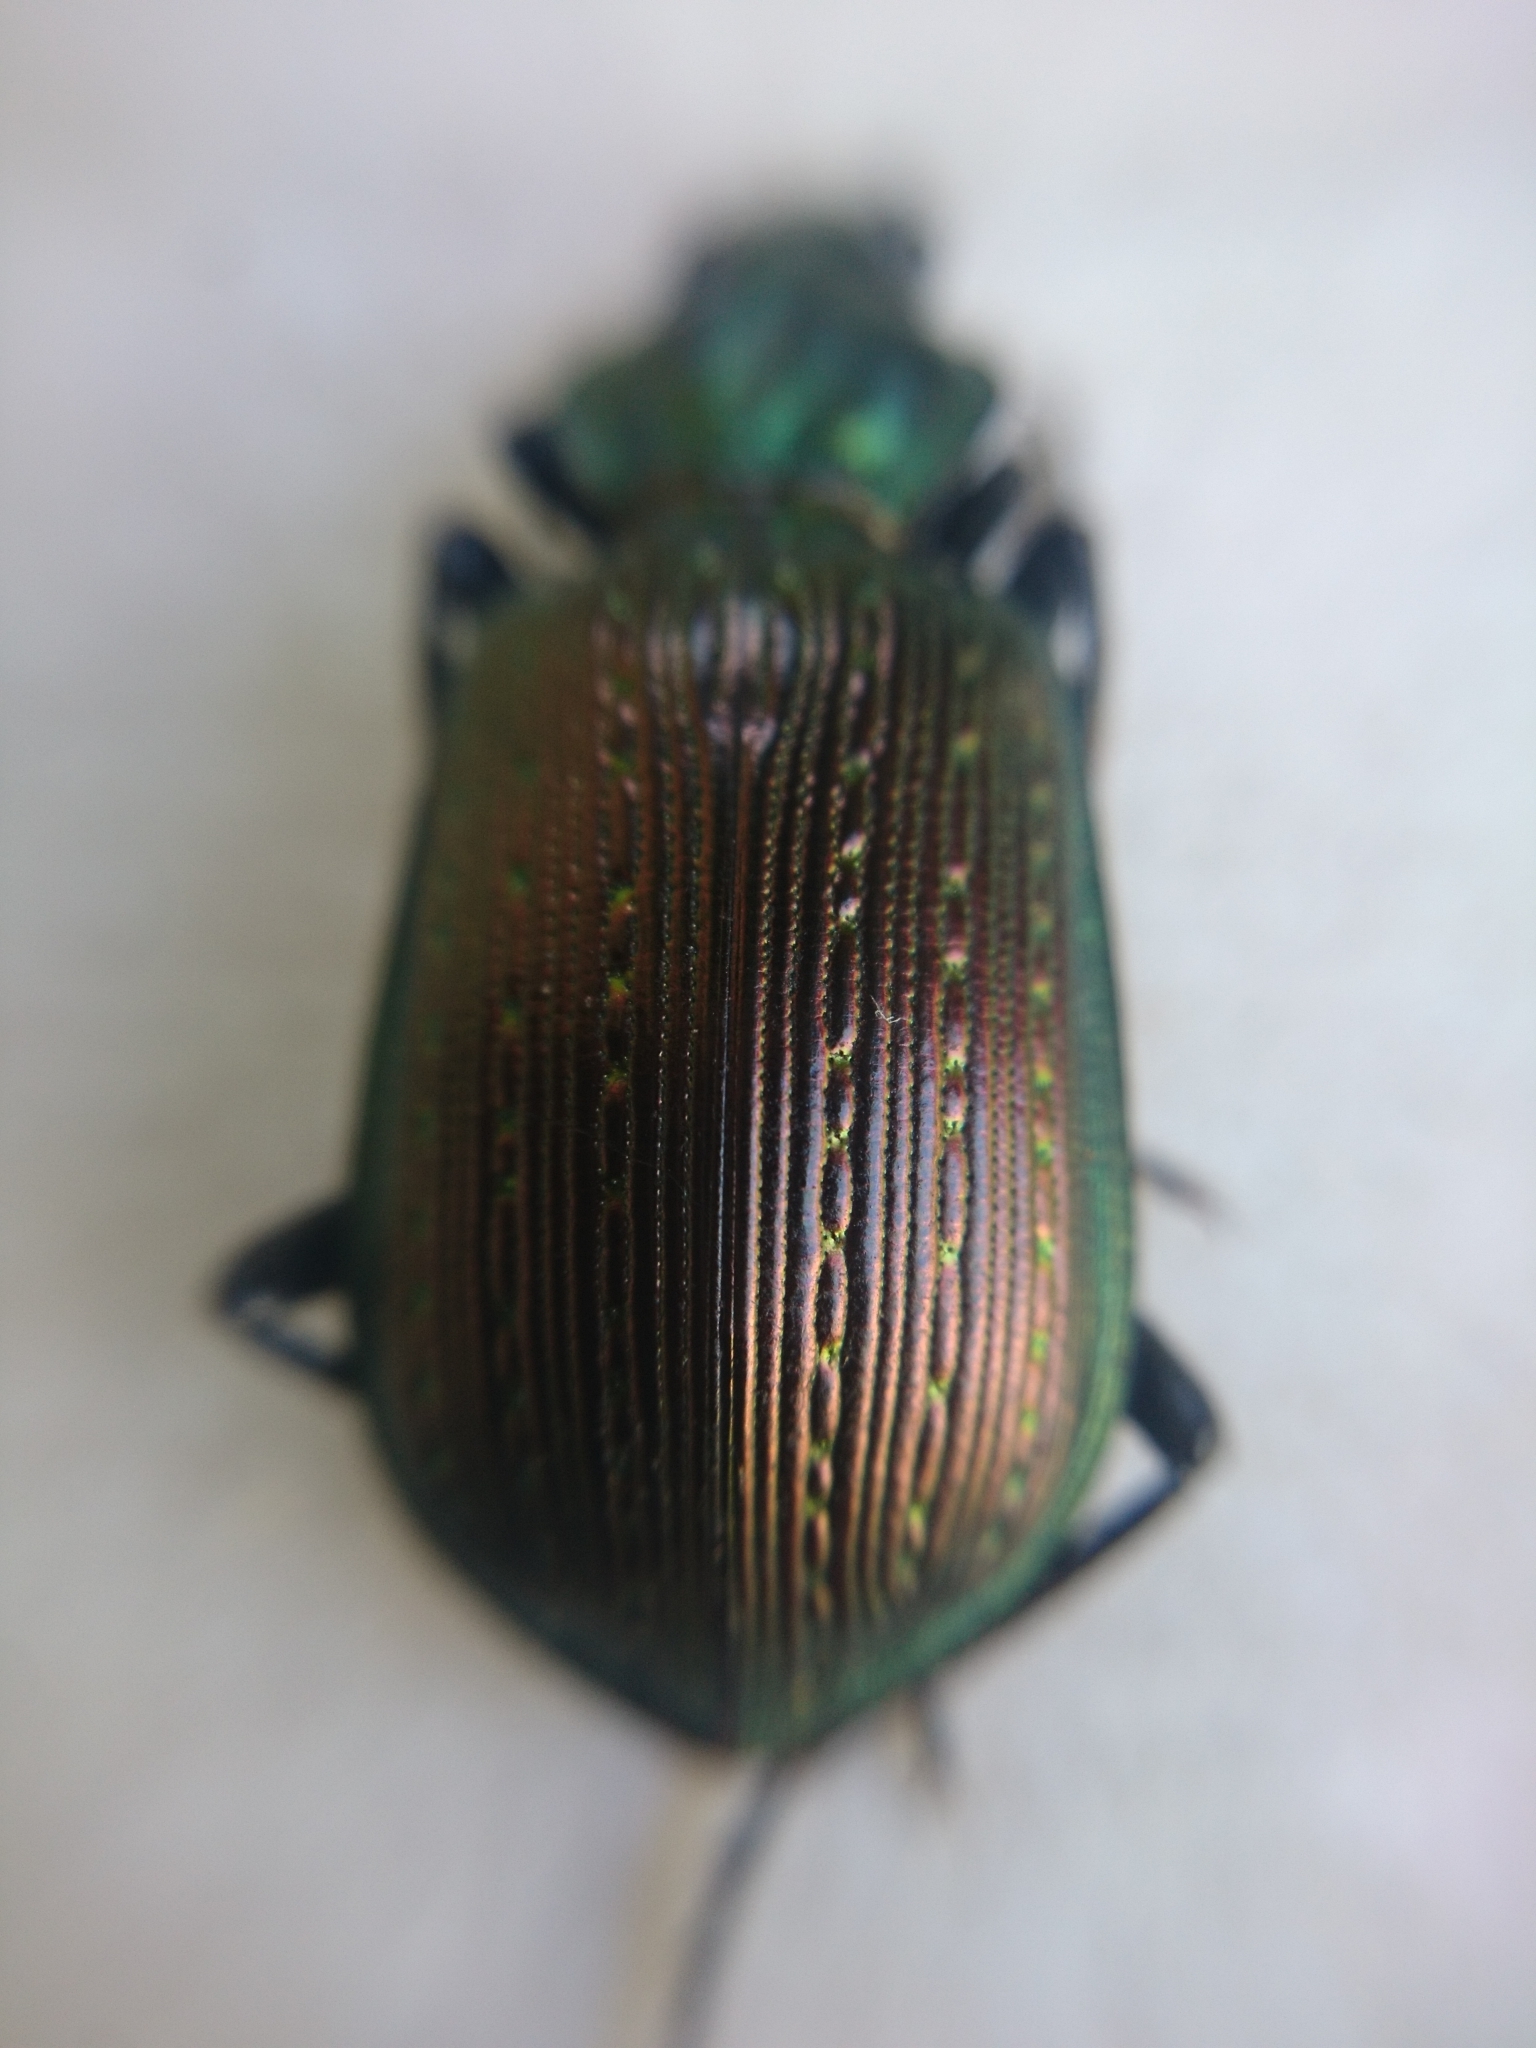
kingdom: Animalia
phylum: Arthropoda
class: Insecta
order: Coleoptera
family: Carabidae
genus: Calosoma
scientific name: Calosoma retusum
